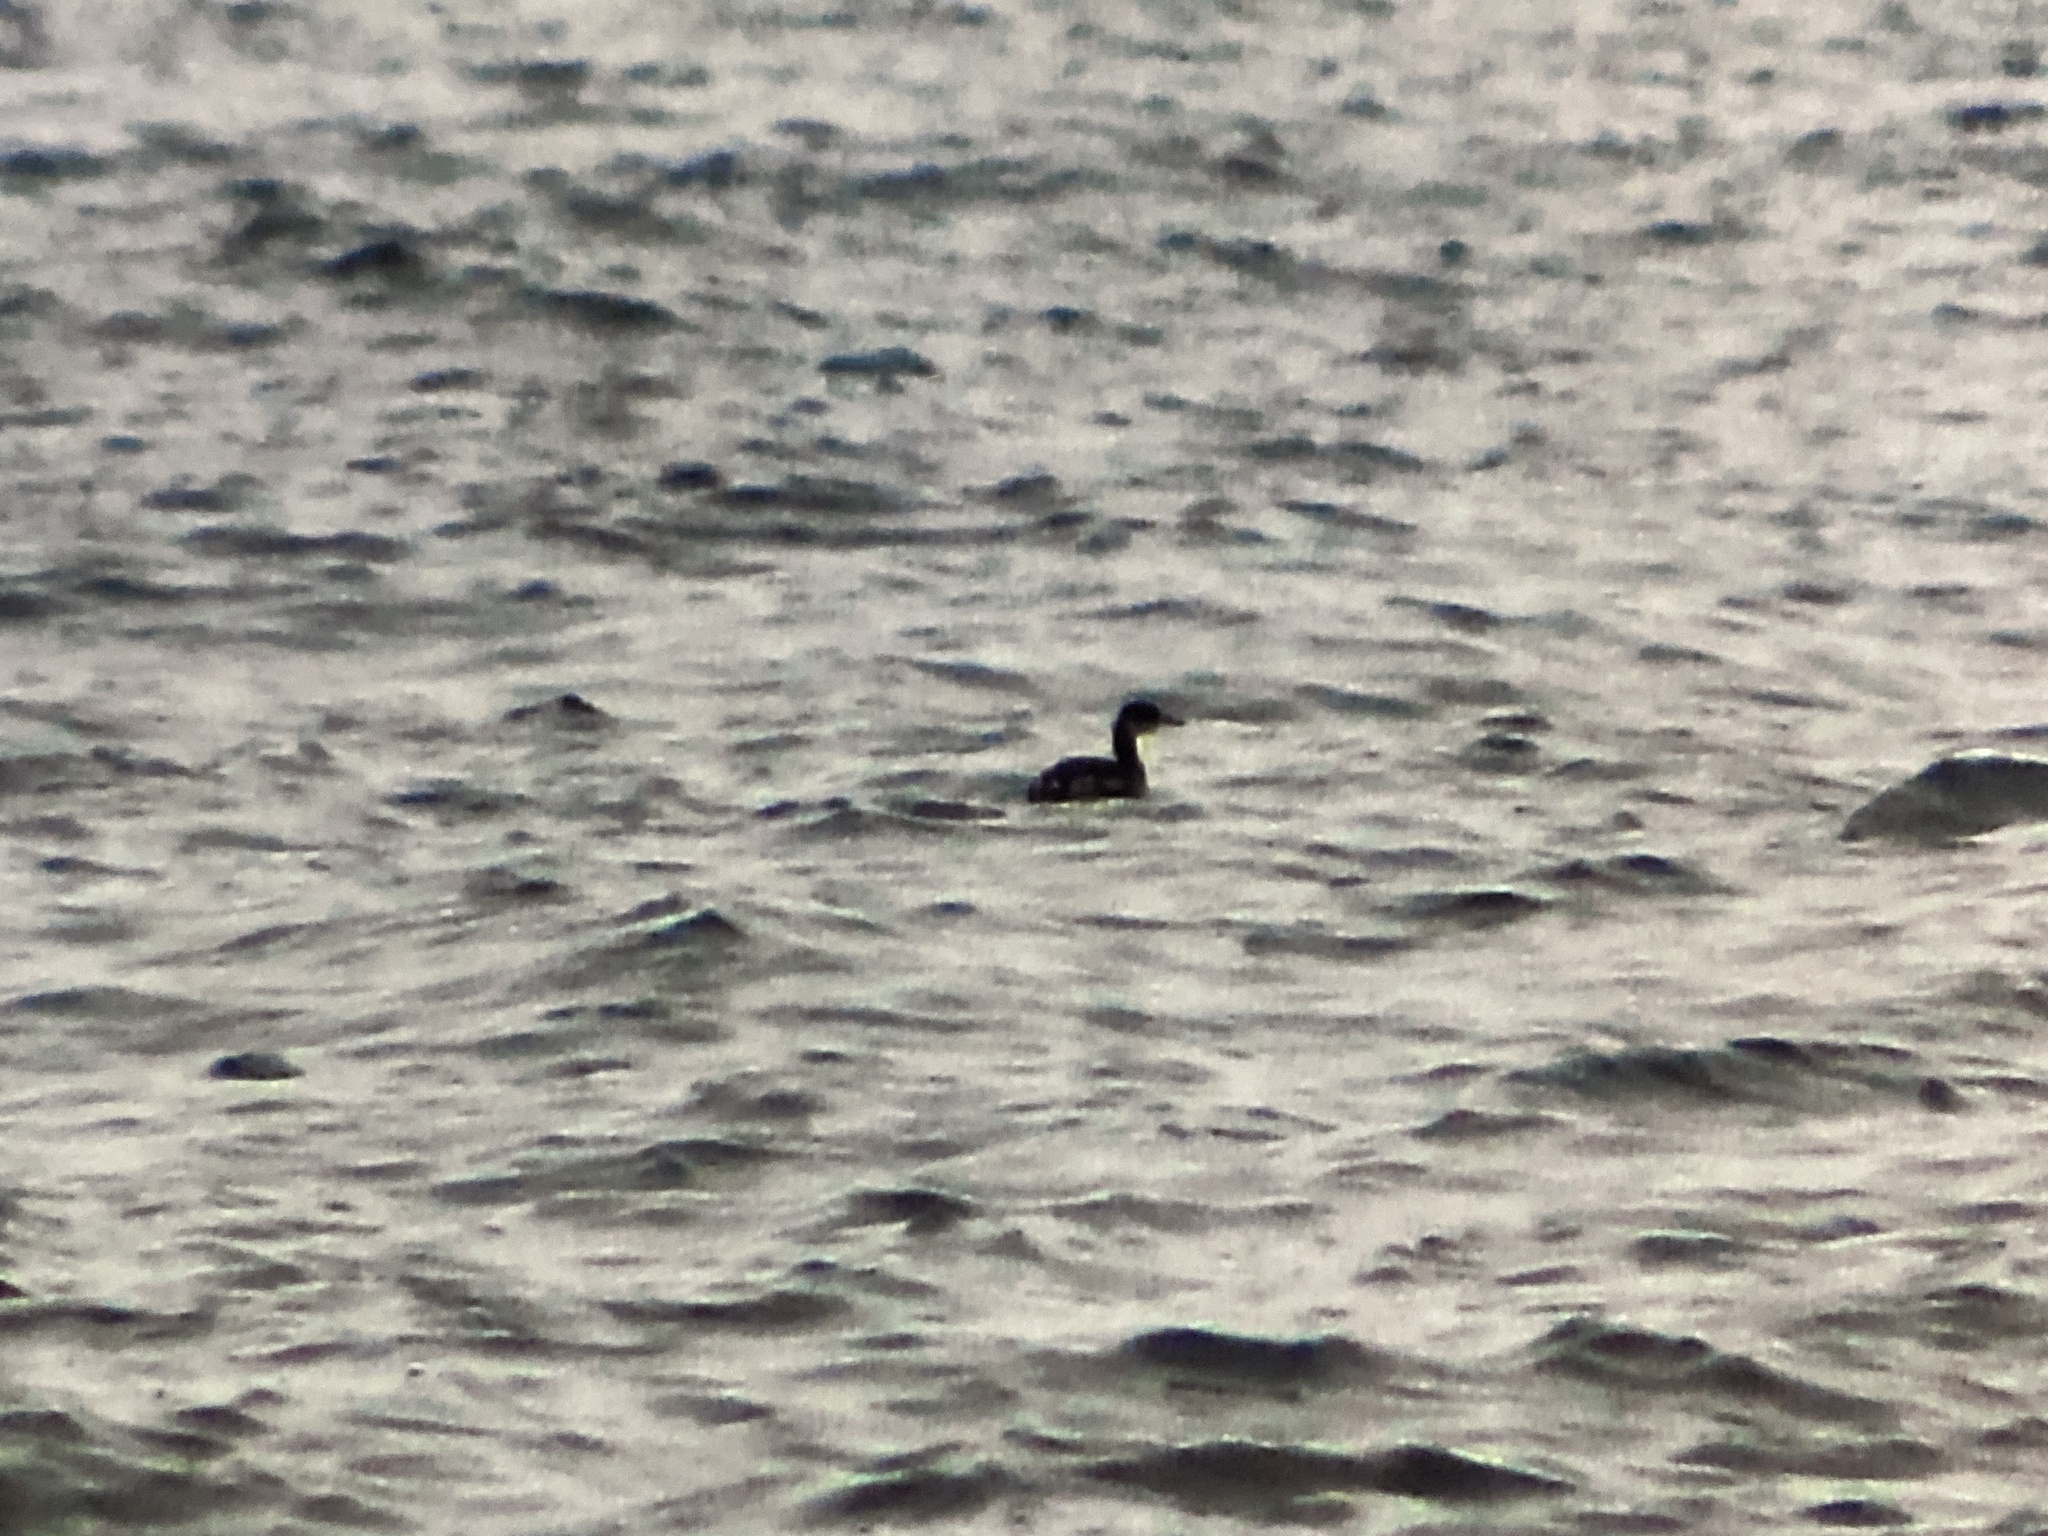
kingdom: Animalia
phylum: Chordata
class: Aves
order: Podicipediformes
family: Podicipedidae
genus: Podiceps
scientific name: Podiceps grisegena
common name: Red-necked grebe
